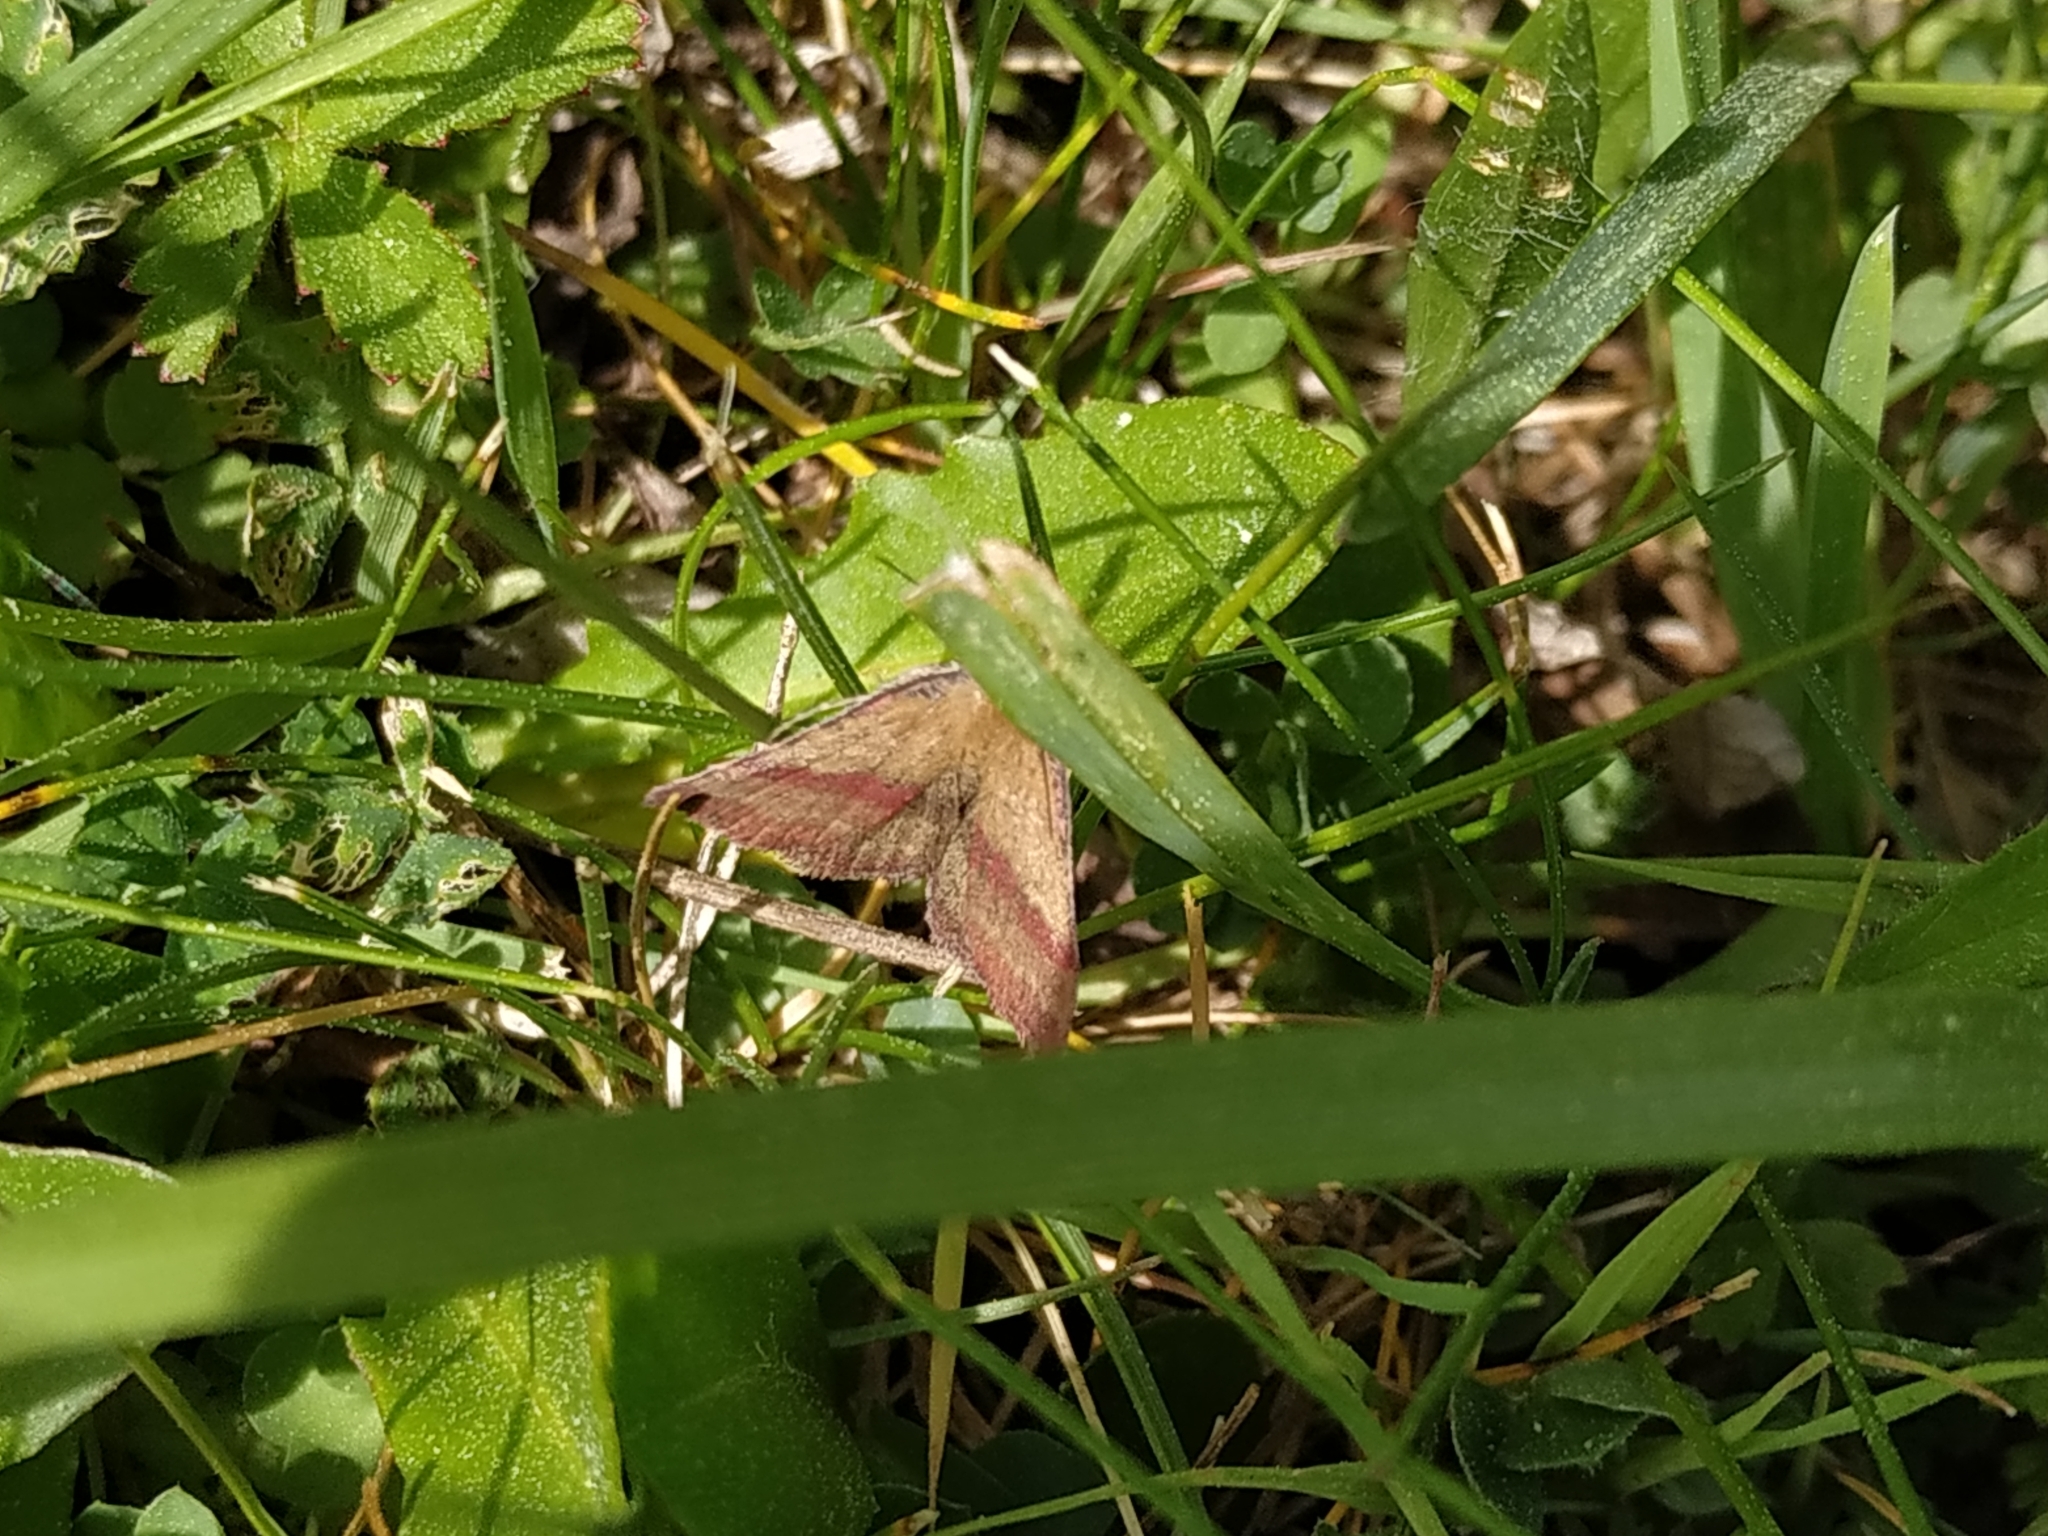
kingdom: Animalia
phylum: Arthropoda
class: Insecta
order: Lepidoptera
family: Erebidae
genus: Phytometra
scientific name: Phytometra viridaria
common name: Small purple-barred
